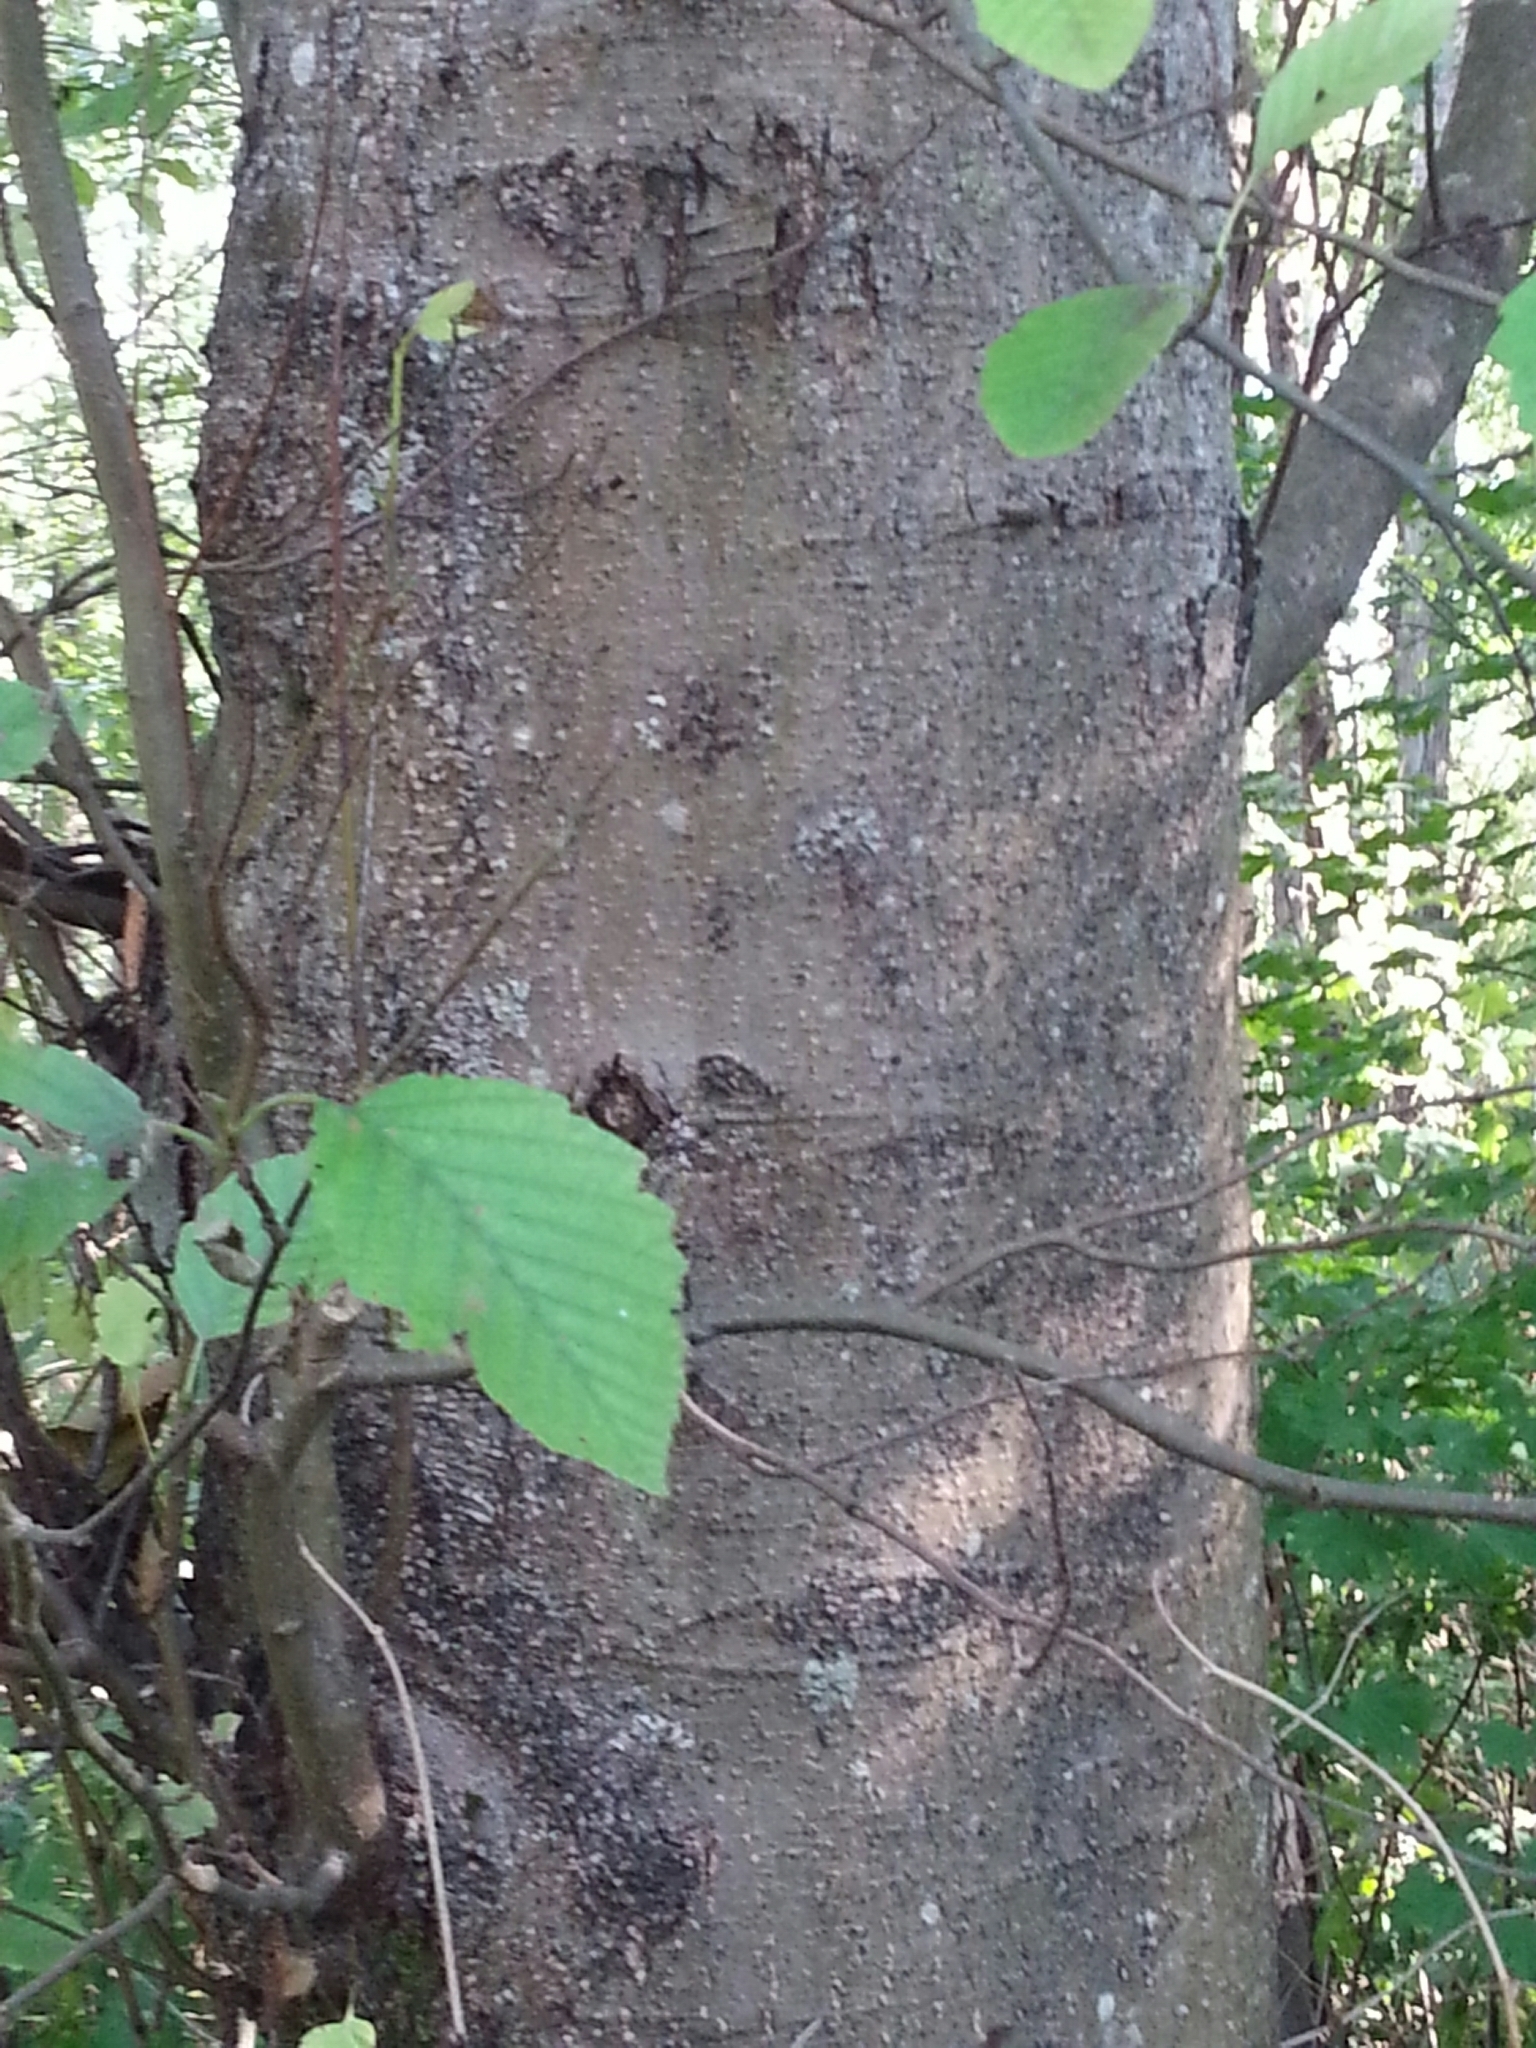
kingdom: Plantae
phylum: Tracheophyta
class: Magnoliopsida
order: Fagales
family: Betulaceae
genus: Alnus
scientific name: Alnus rubra
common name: Red alder
